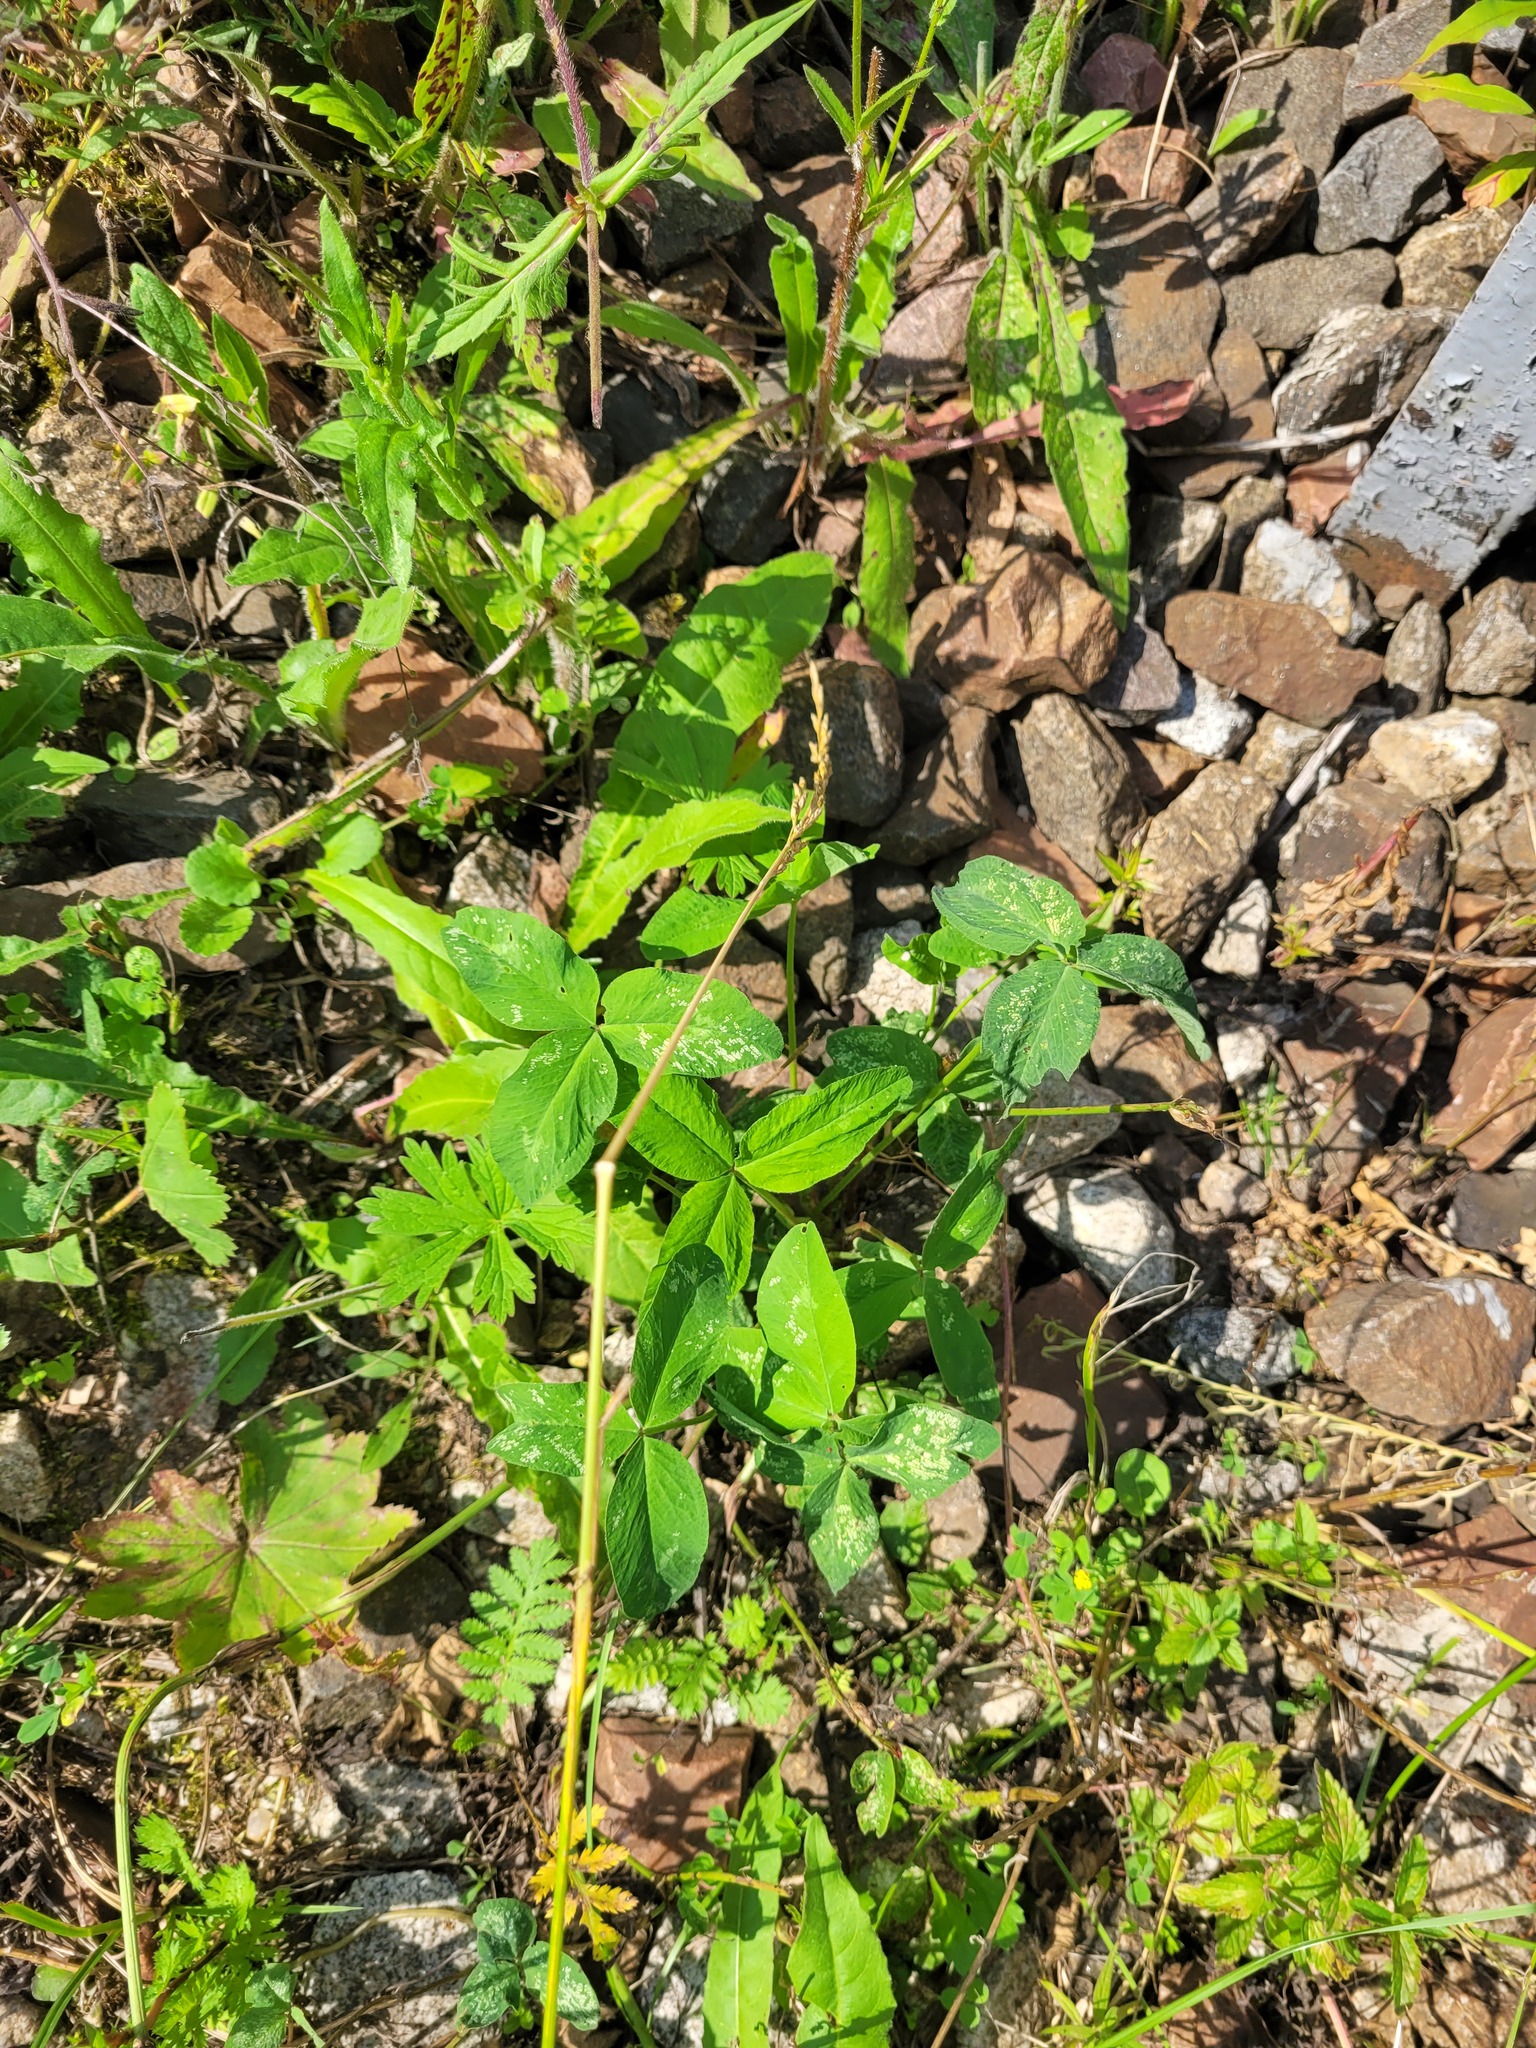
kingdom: Plantae
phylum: Tracheophyta
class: Magnoliopsida
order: Fabales
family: Fabaceae
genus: Trifolium
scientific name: Trifolium pratense
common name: Red clover
